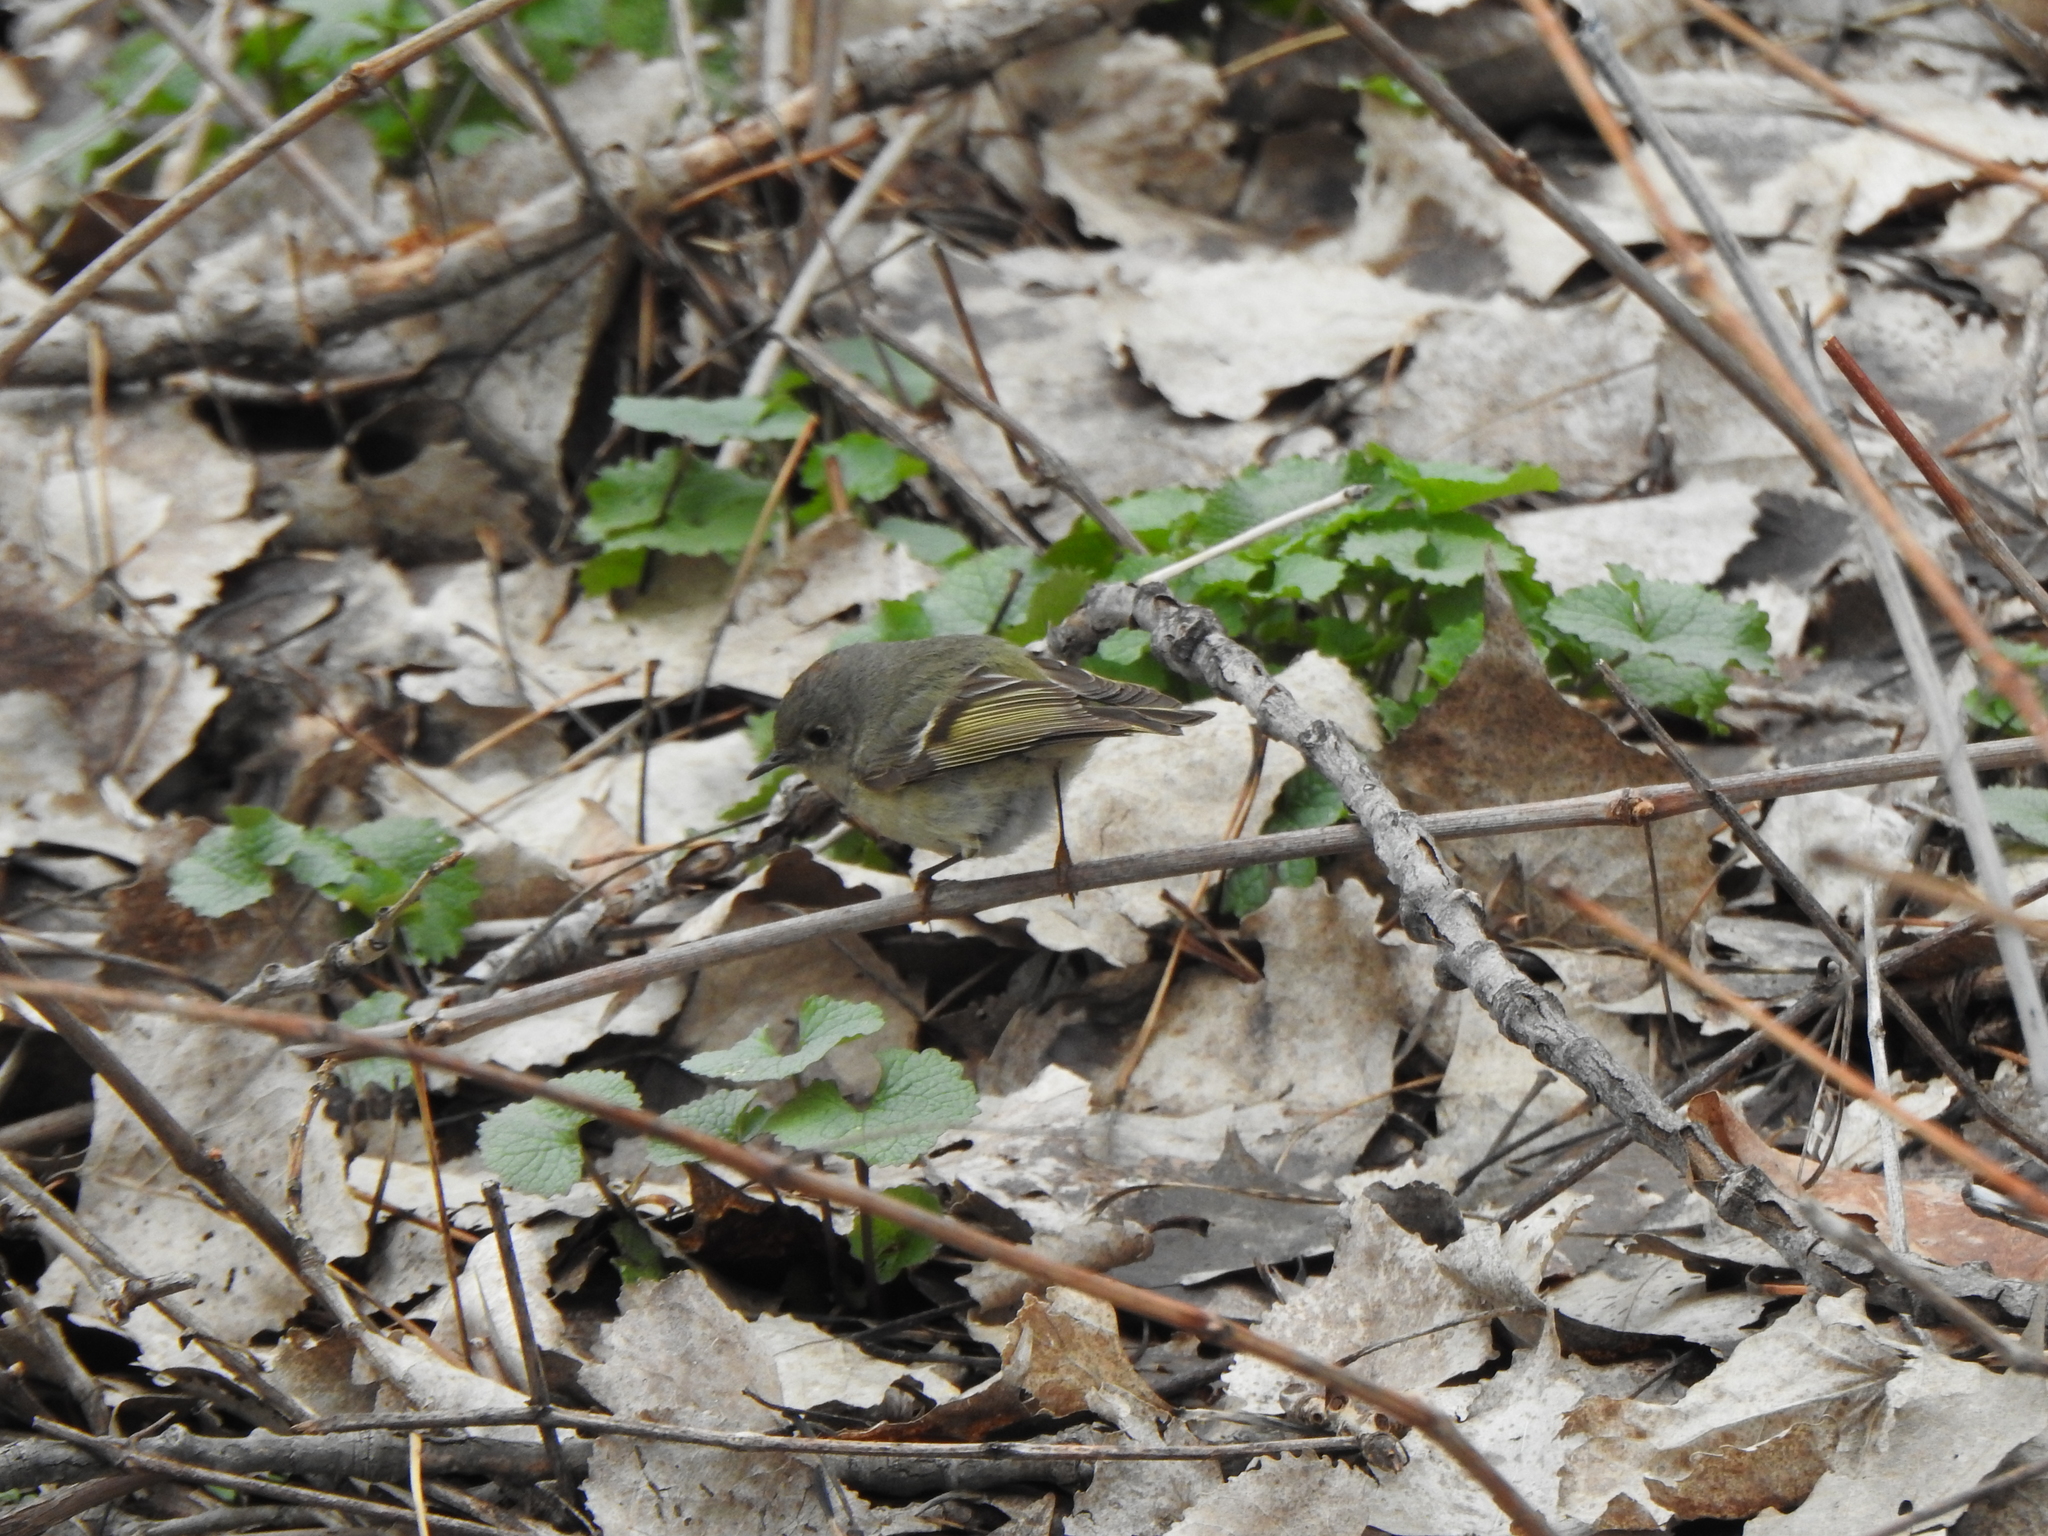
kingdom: Animalia
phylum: Chordata
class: Aves
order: Passeriformes
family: Regulidae
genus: Regulus
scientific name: Regulus calendula
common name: Ruby-crowned kinglet
